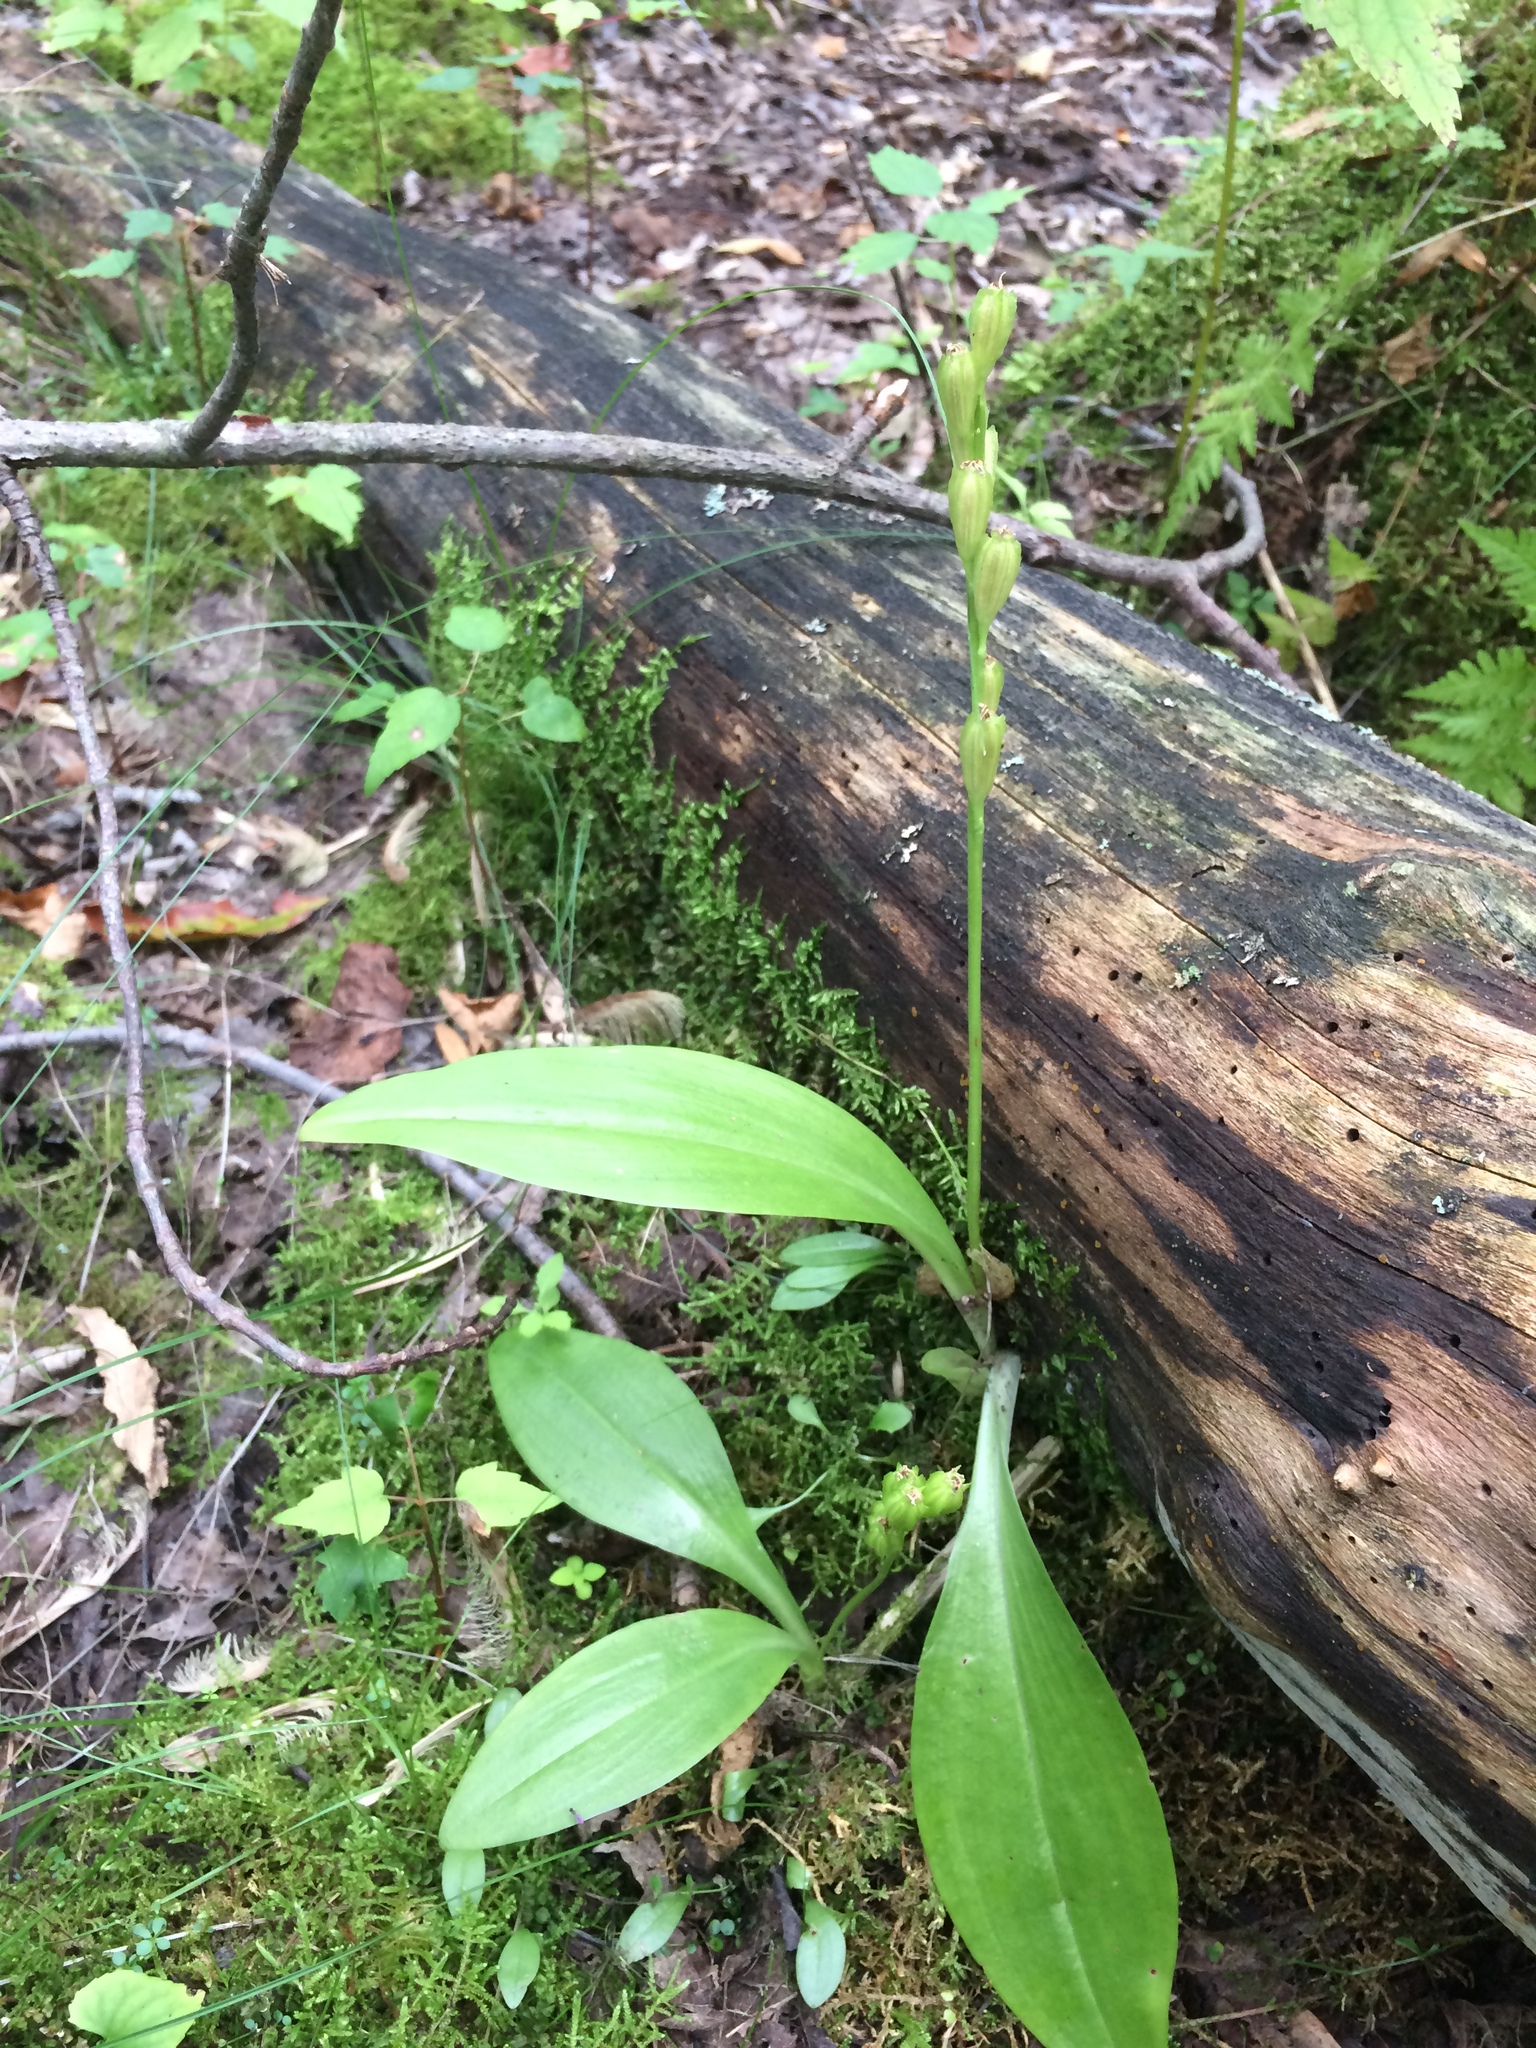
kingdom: Animalia
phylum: Arthropoda
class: Insecta
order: Coleoptera
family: Curculionidae
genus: Liparis
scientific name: Liparis loeselii
